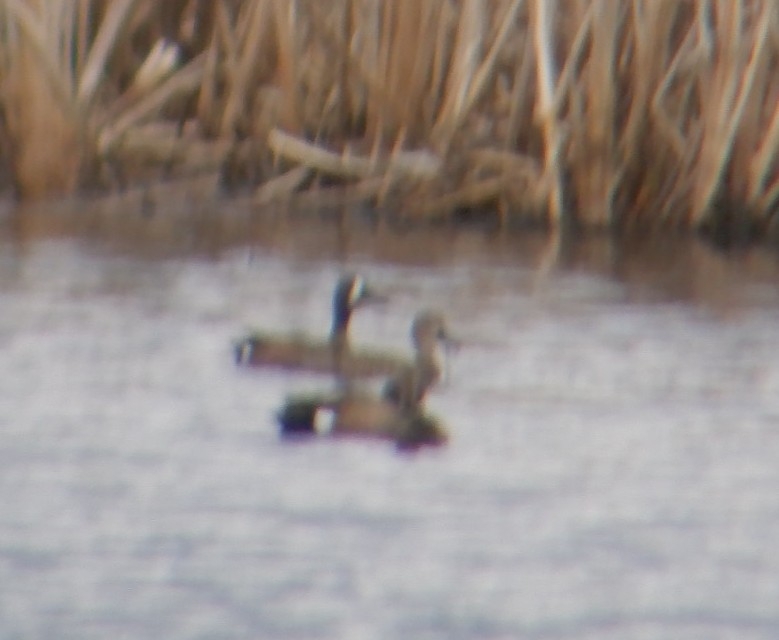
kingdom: Animalia
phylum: Chordata
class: Aves
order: Anseriformes
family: Anatidae
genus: Spatula
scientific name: Spatula discors
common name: Blue-winged teal
